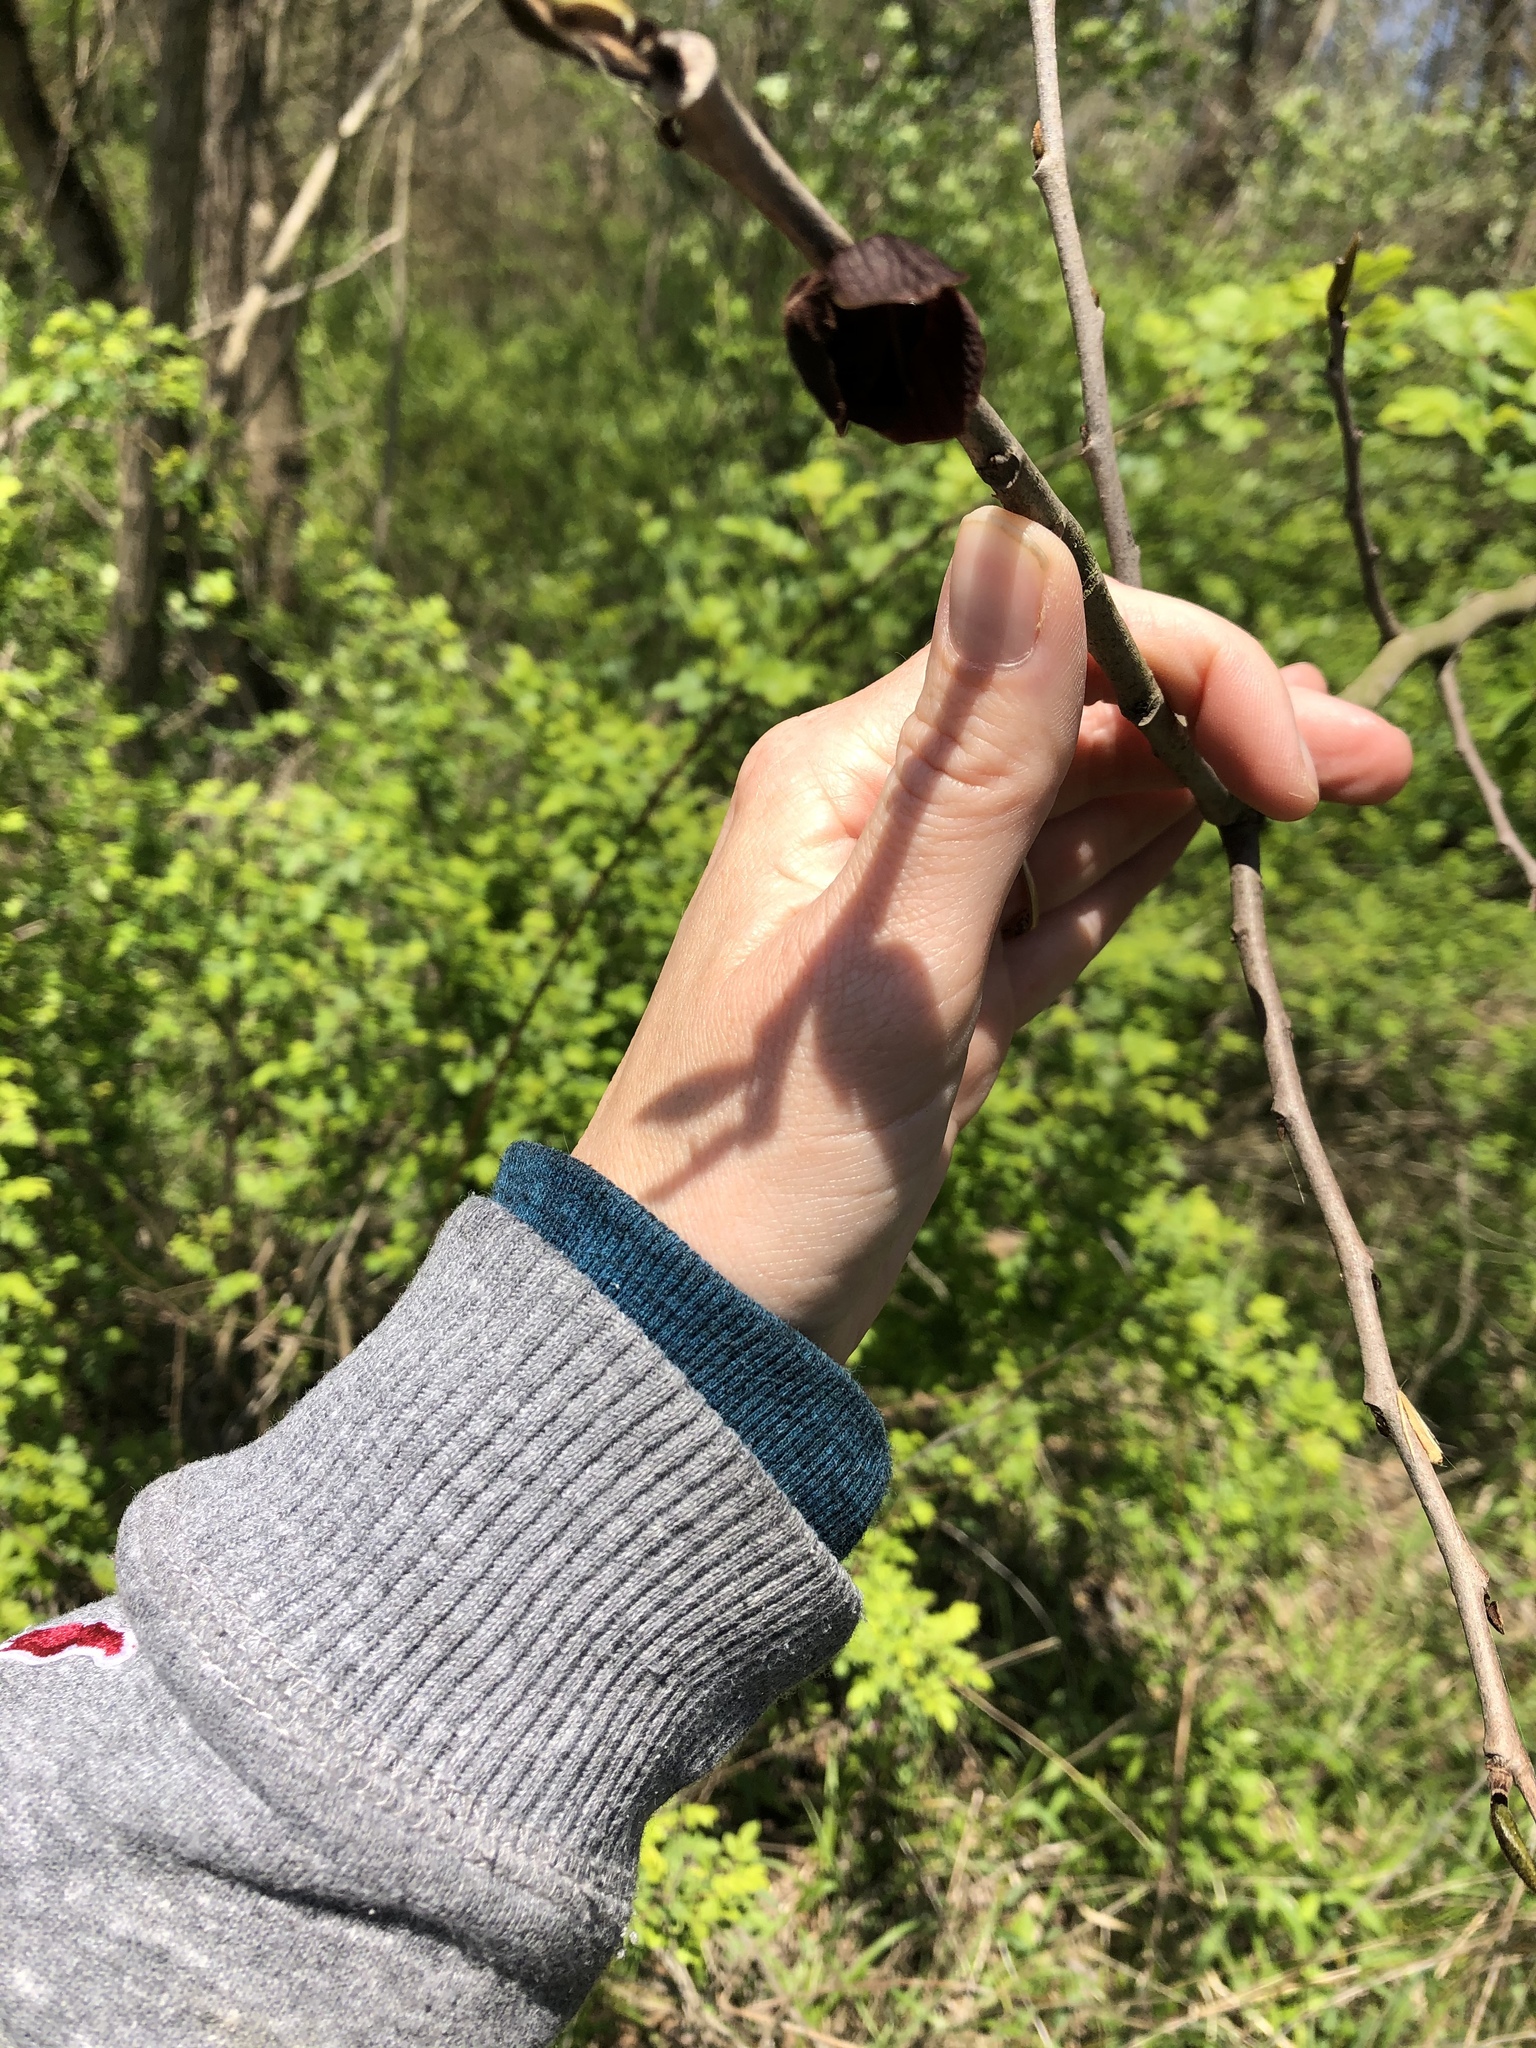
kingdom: Plantae
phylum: Tracheophyta
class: Magnoliopsida
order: Magnoliales
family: Annonaceae
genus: Asimina
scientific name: Asimina triloba
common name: Dog-banana
